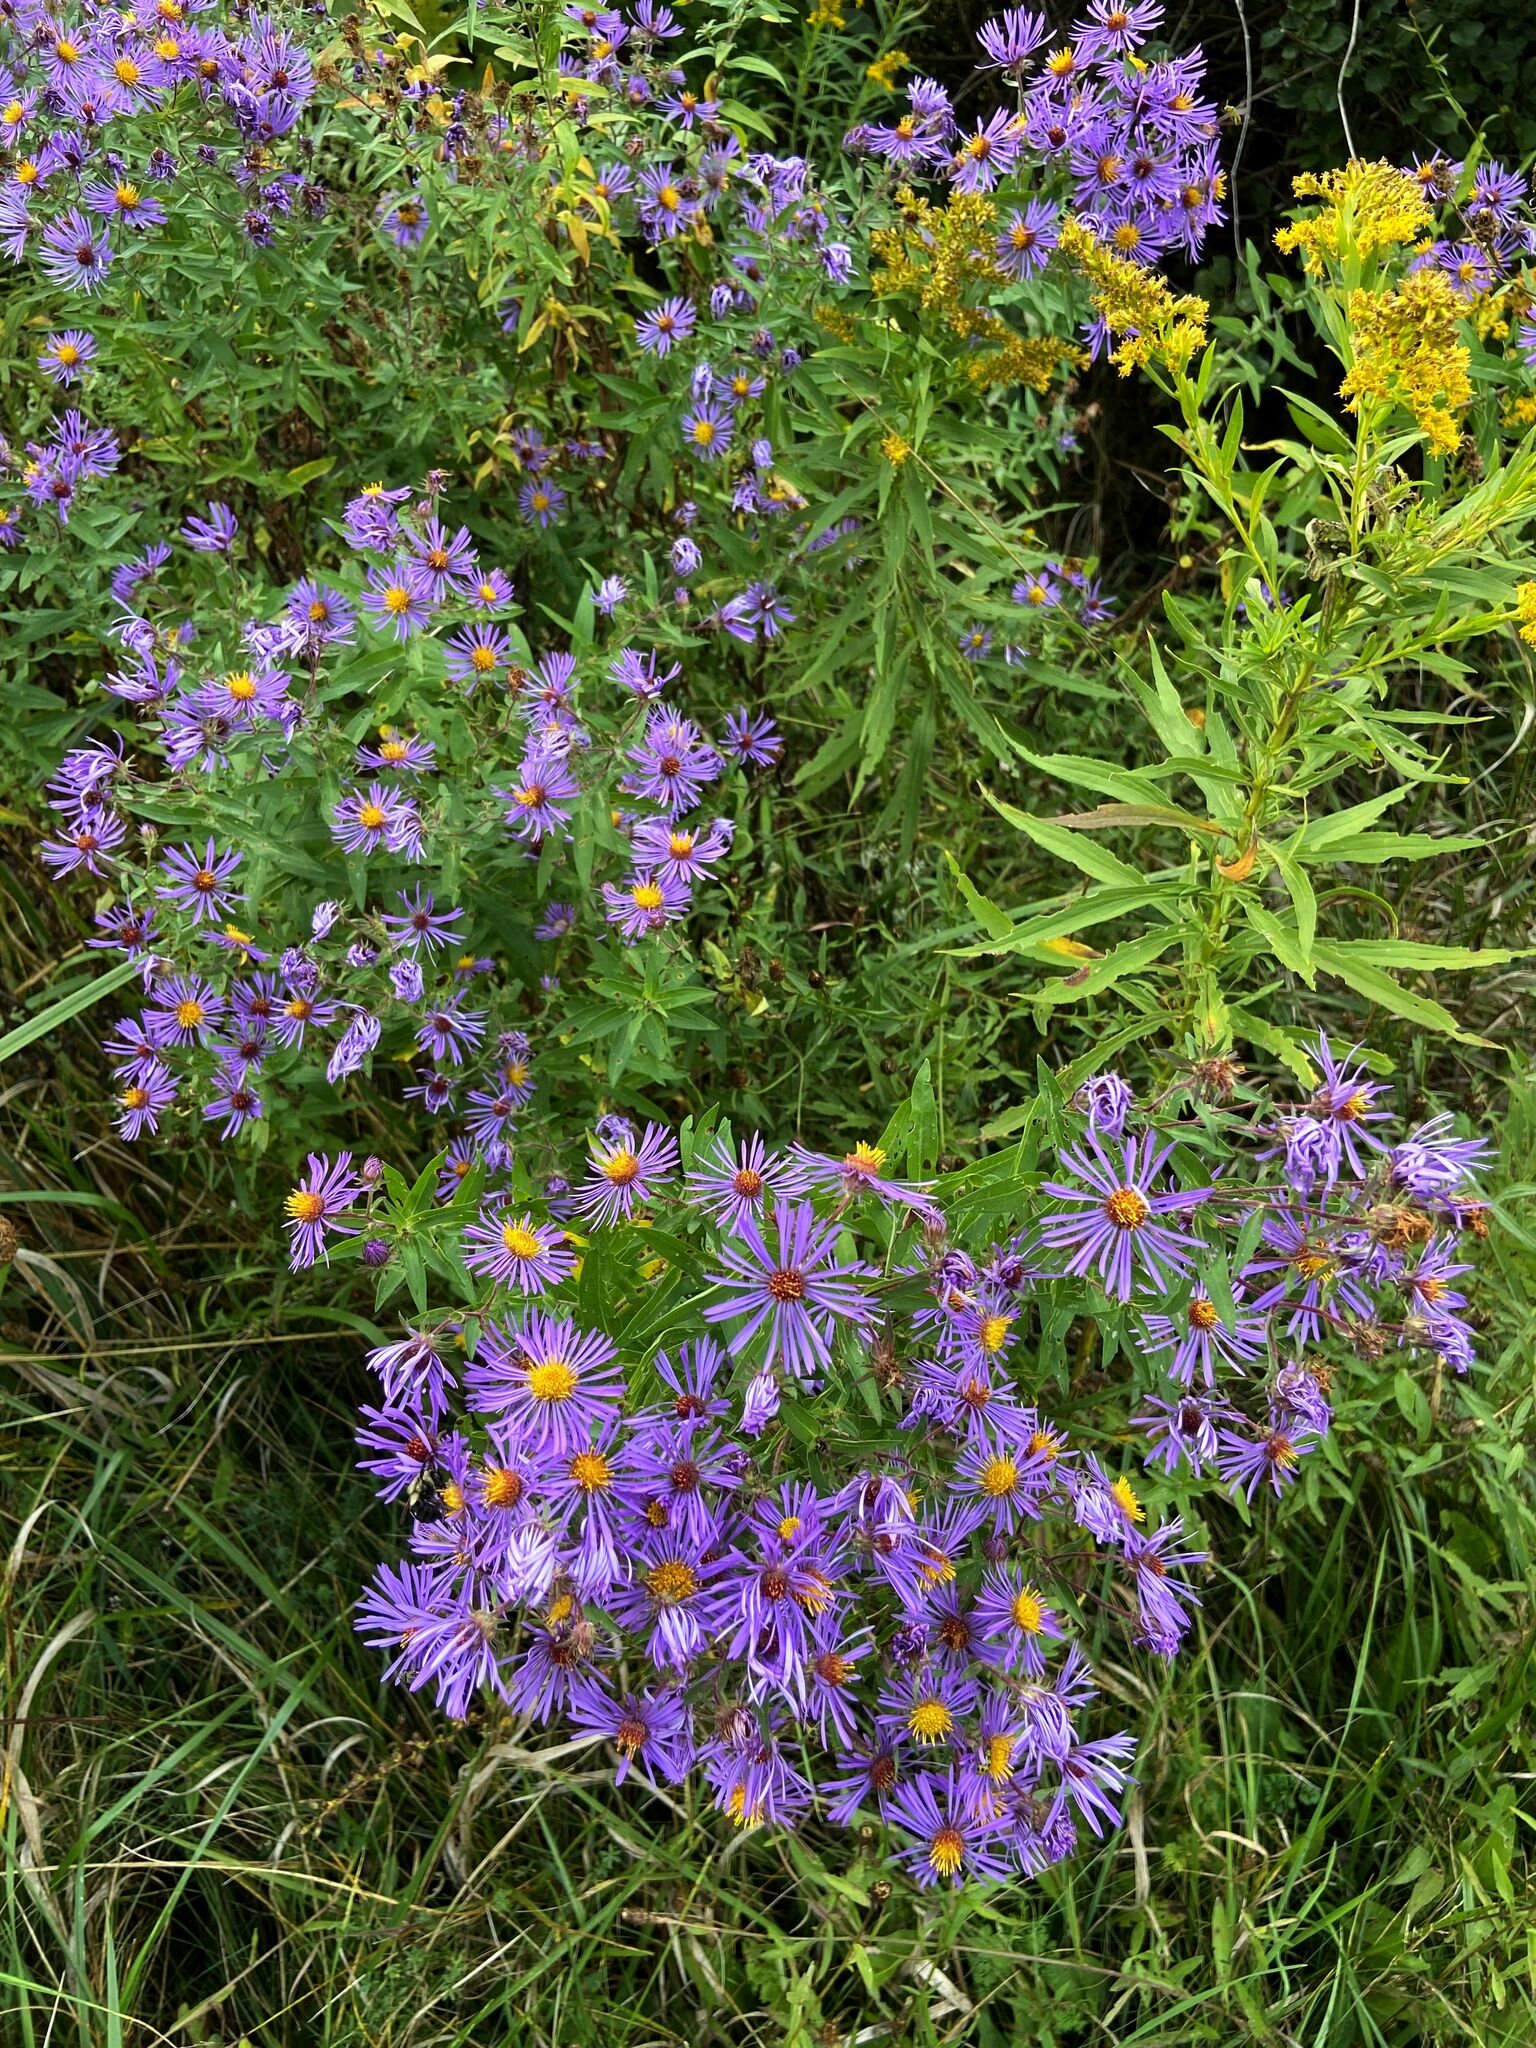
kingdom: Plantae
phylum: Tracheophyta
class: Magnoliopsida
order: Asterales
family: Asteraceae
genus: Symphyotrichum
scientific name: Symphyotrichum novae-angliae
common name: Michaelmas daisy
